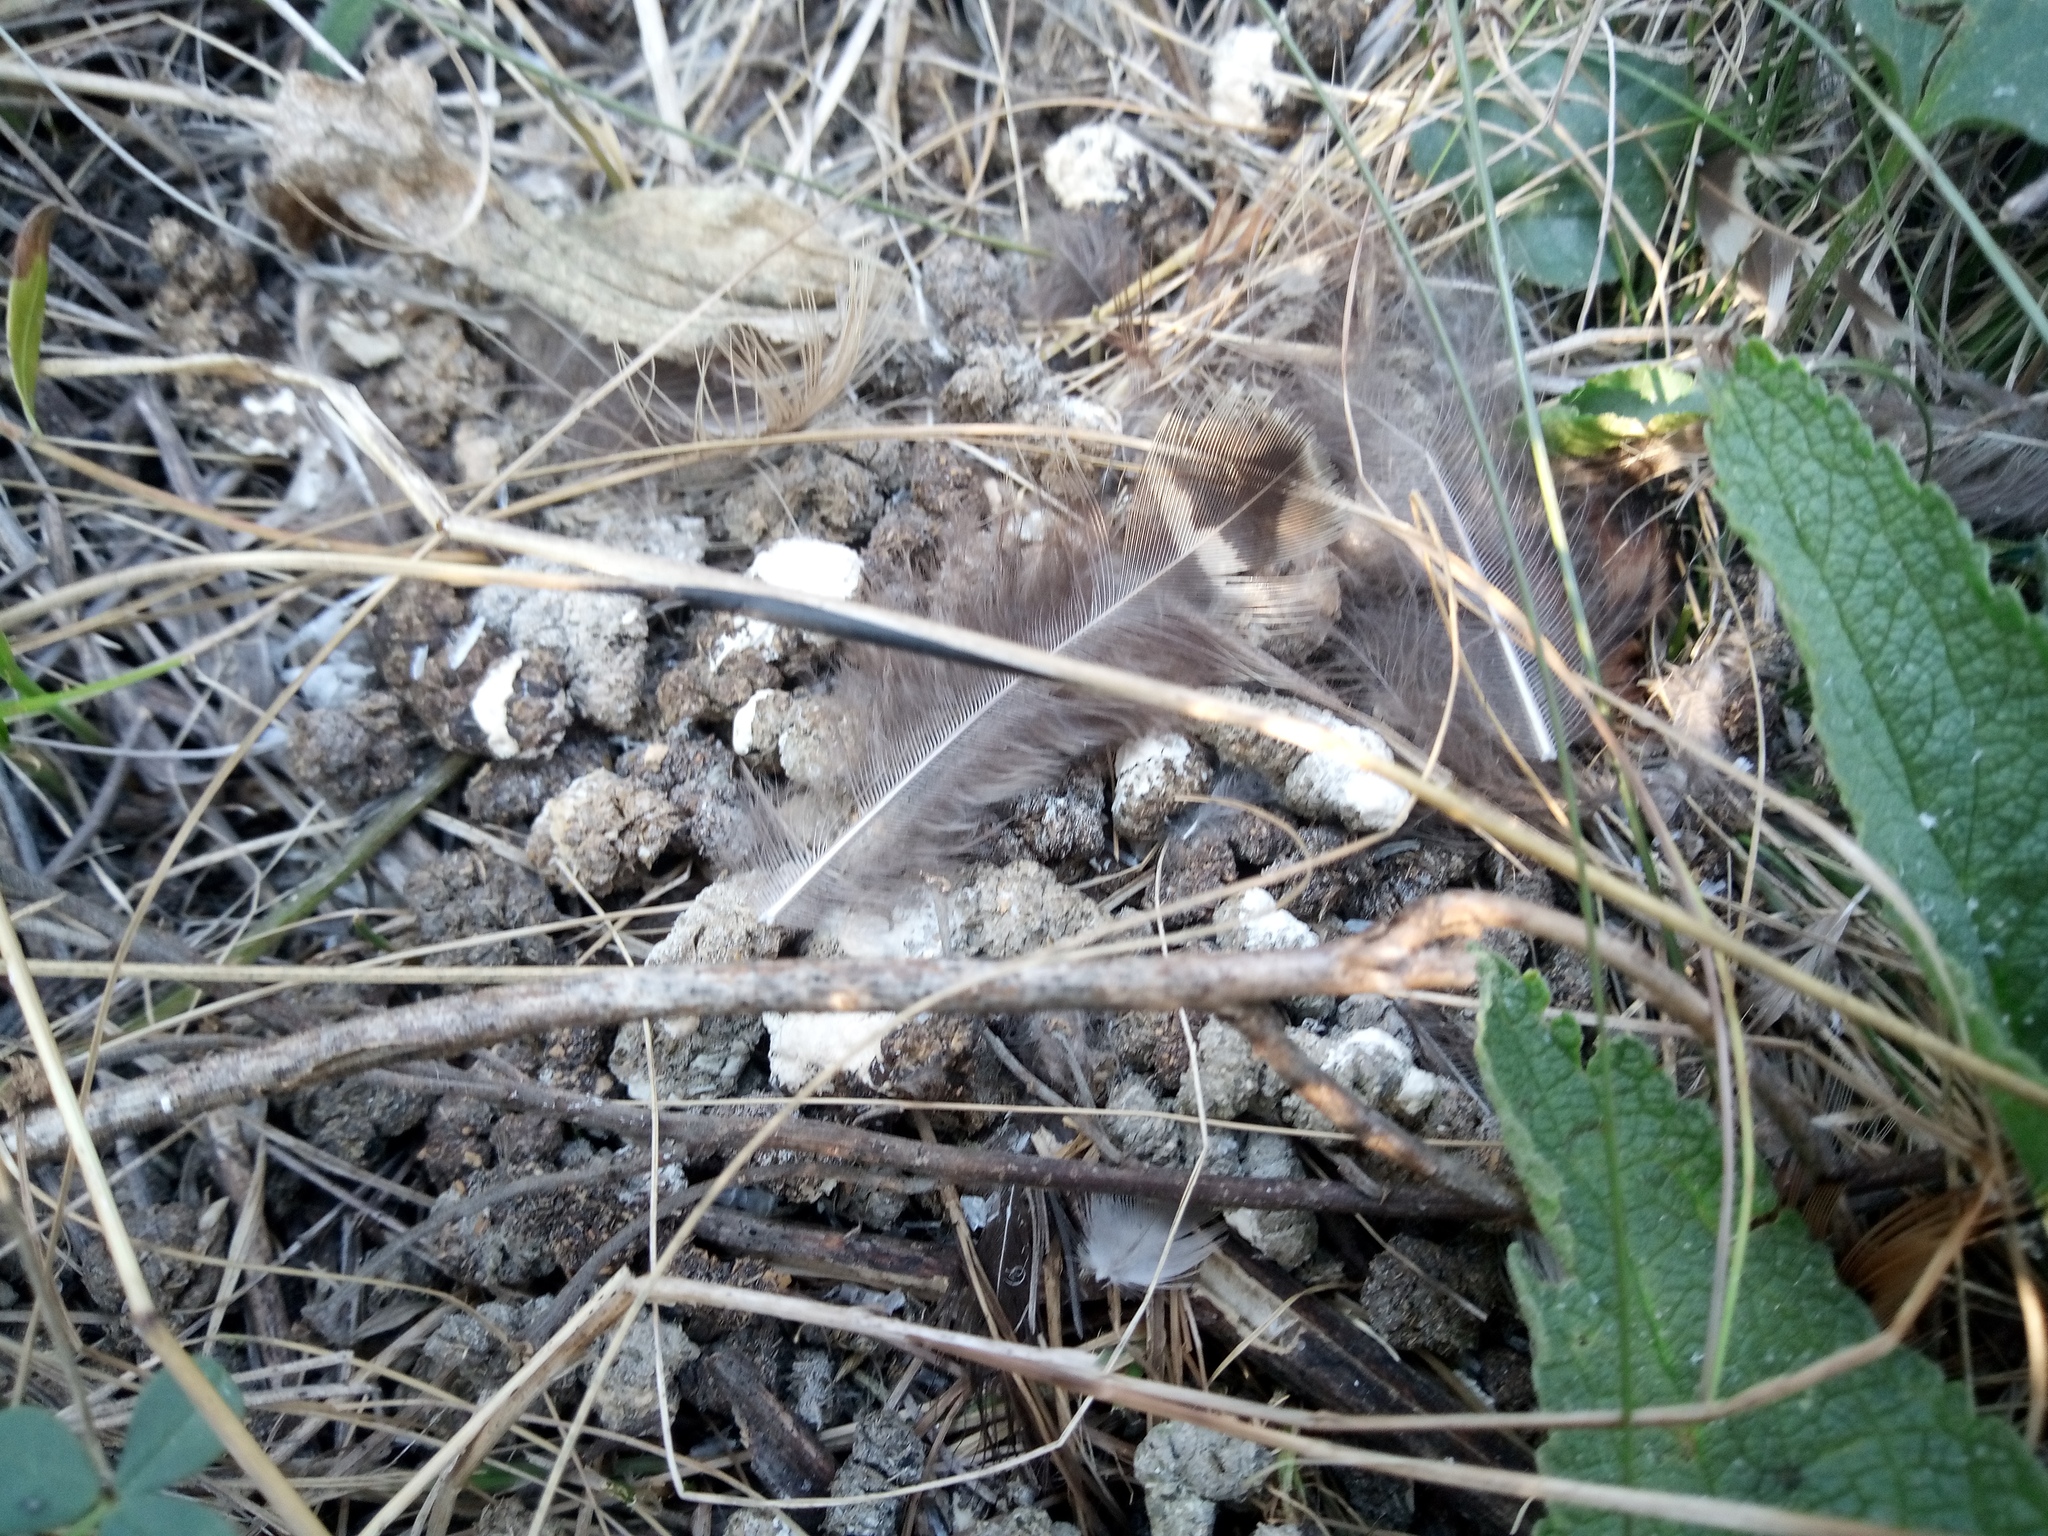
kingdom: Animalia
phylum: Chordata
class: Aves
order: Galliformes
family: Phasianidae
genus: Phasianus
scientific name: Phasianus colchicus
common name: Common pheasant
